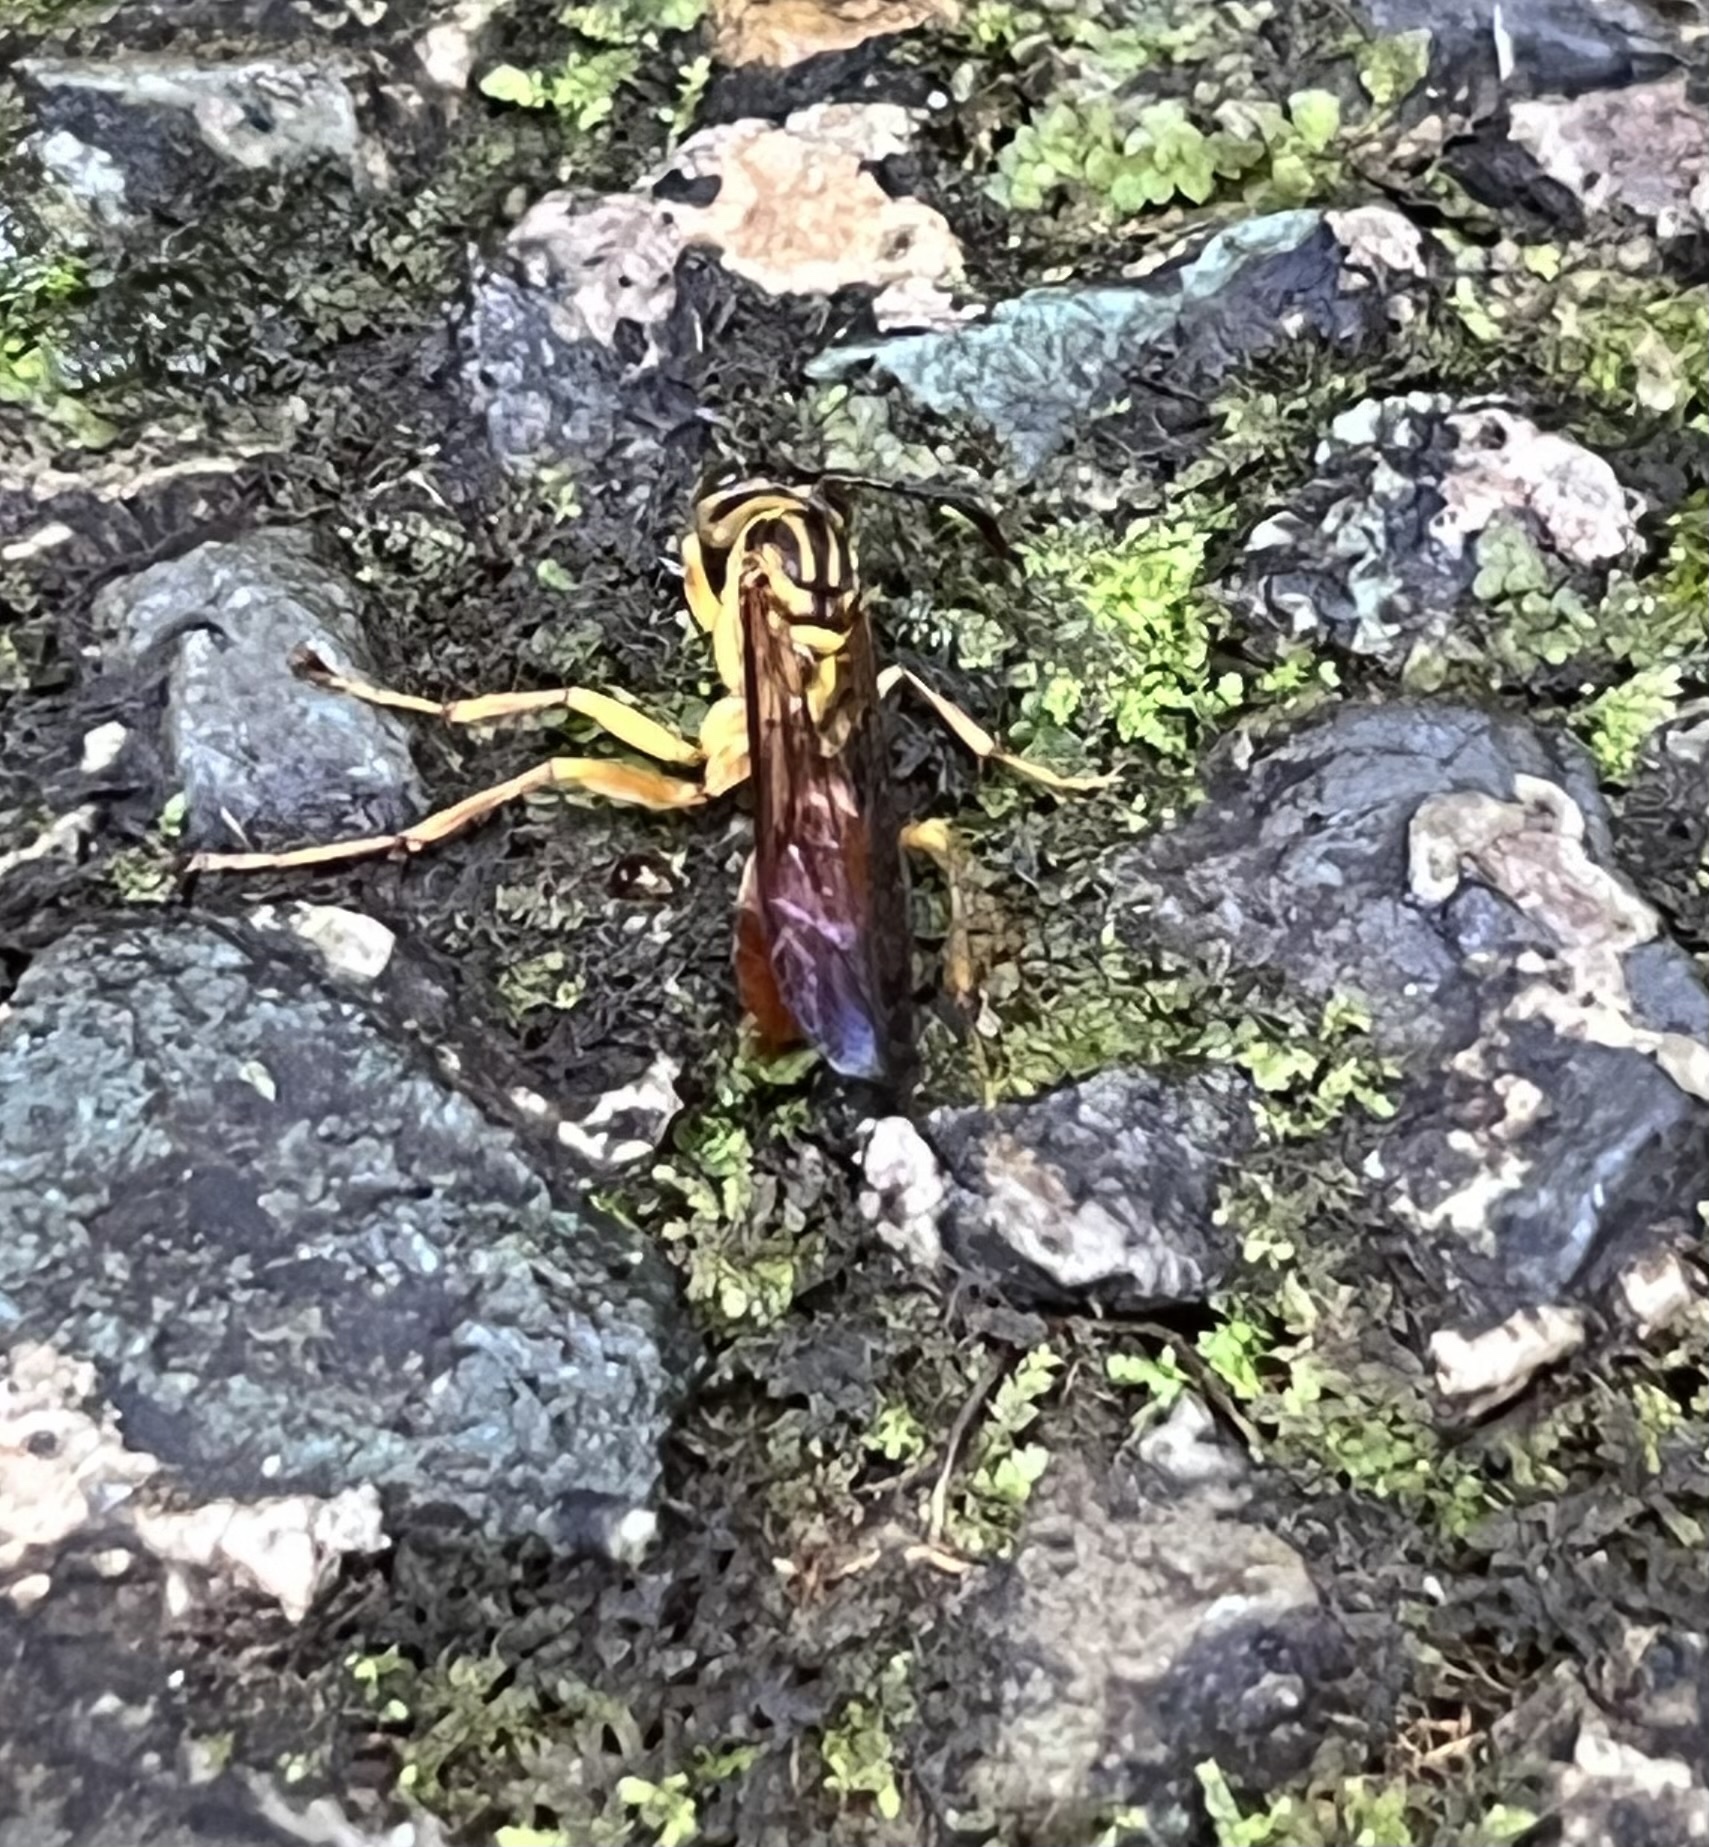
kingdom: Animalia
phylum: Arthropoda
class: Insecta
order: Hymenoptera
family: Vespidae
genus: Agelaia
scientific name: Agelaia centralis
